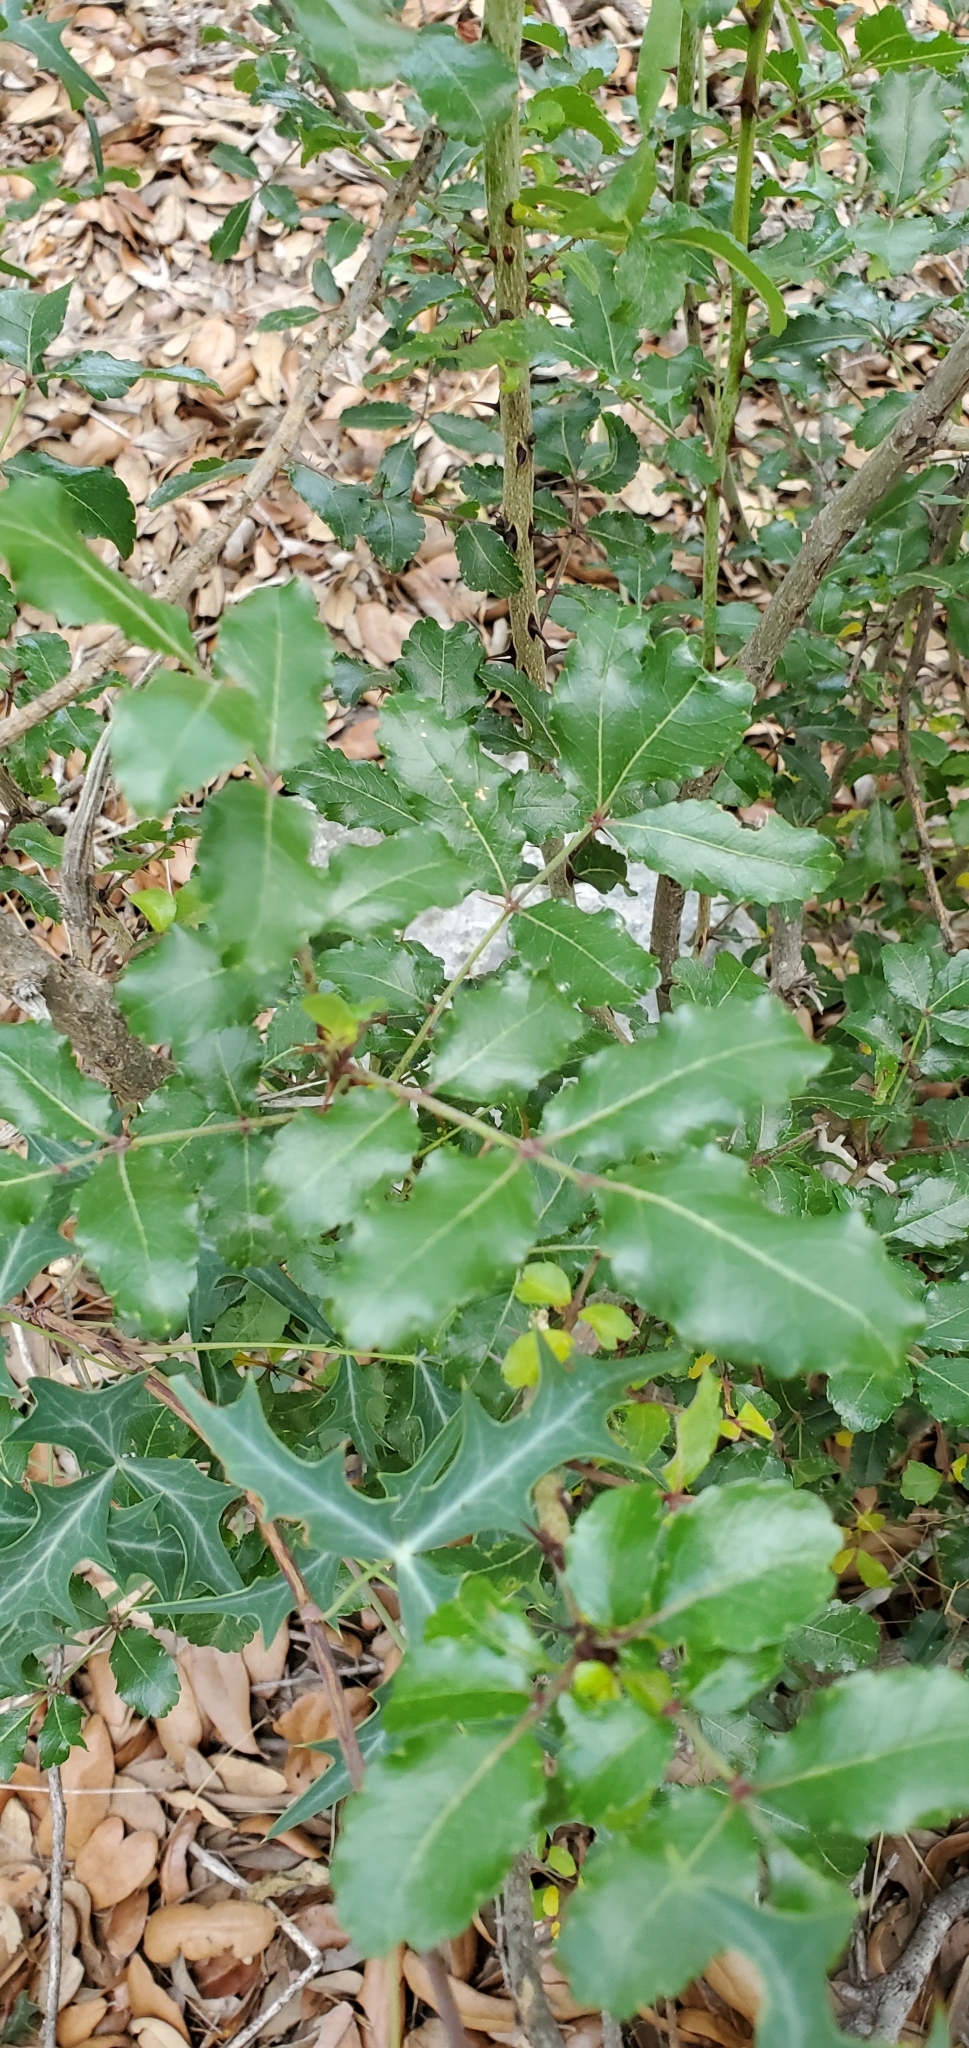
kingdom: Plantae
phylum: Tracheophyta
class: Magnoliopsida
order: Sapindales
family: Rutaceae
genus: Zanthoxylum
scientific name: Zanthoxylum clava-herculis
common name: Hercules'-club
